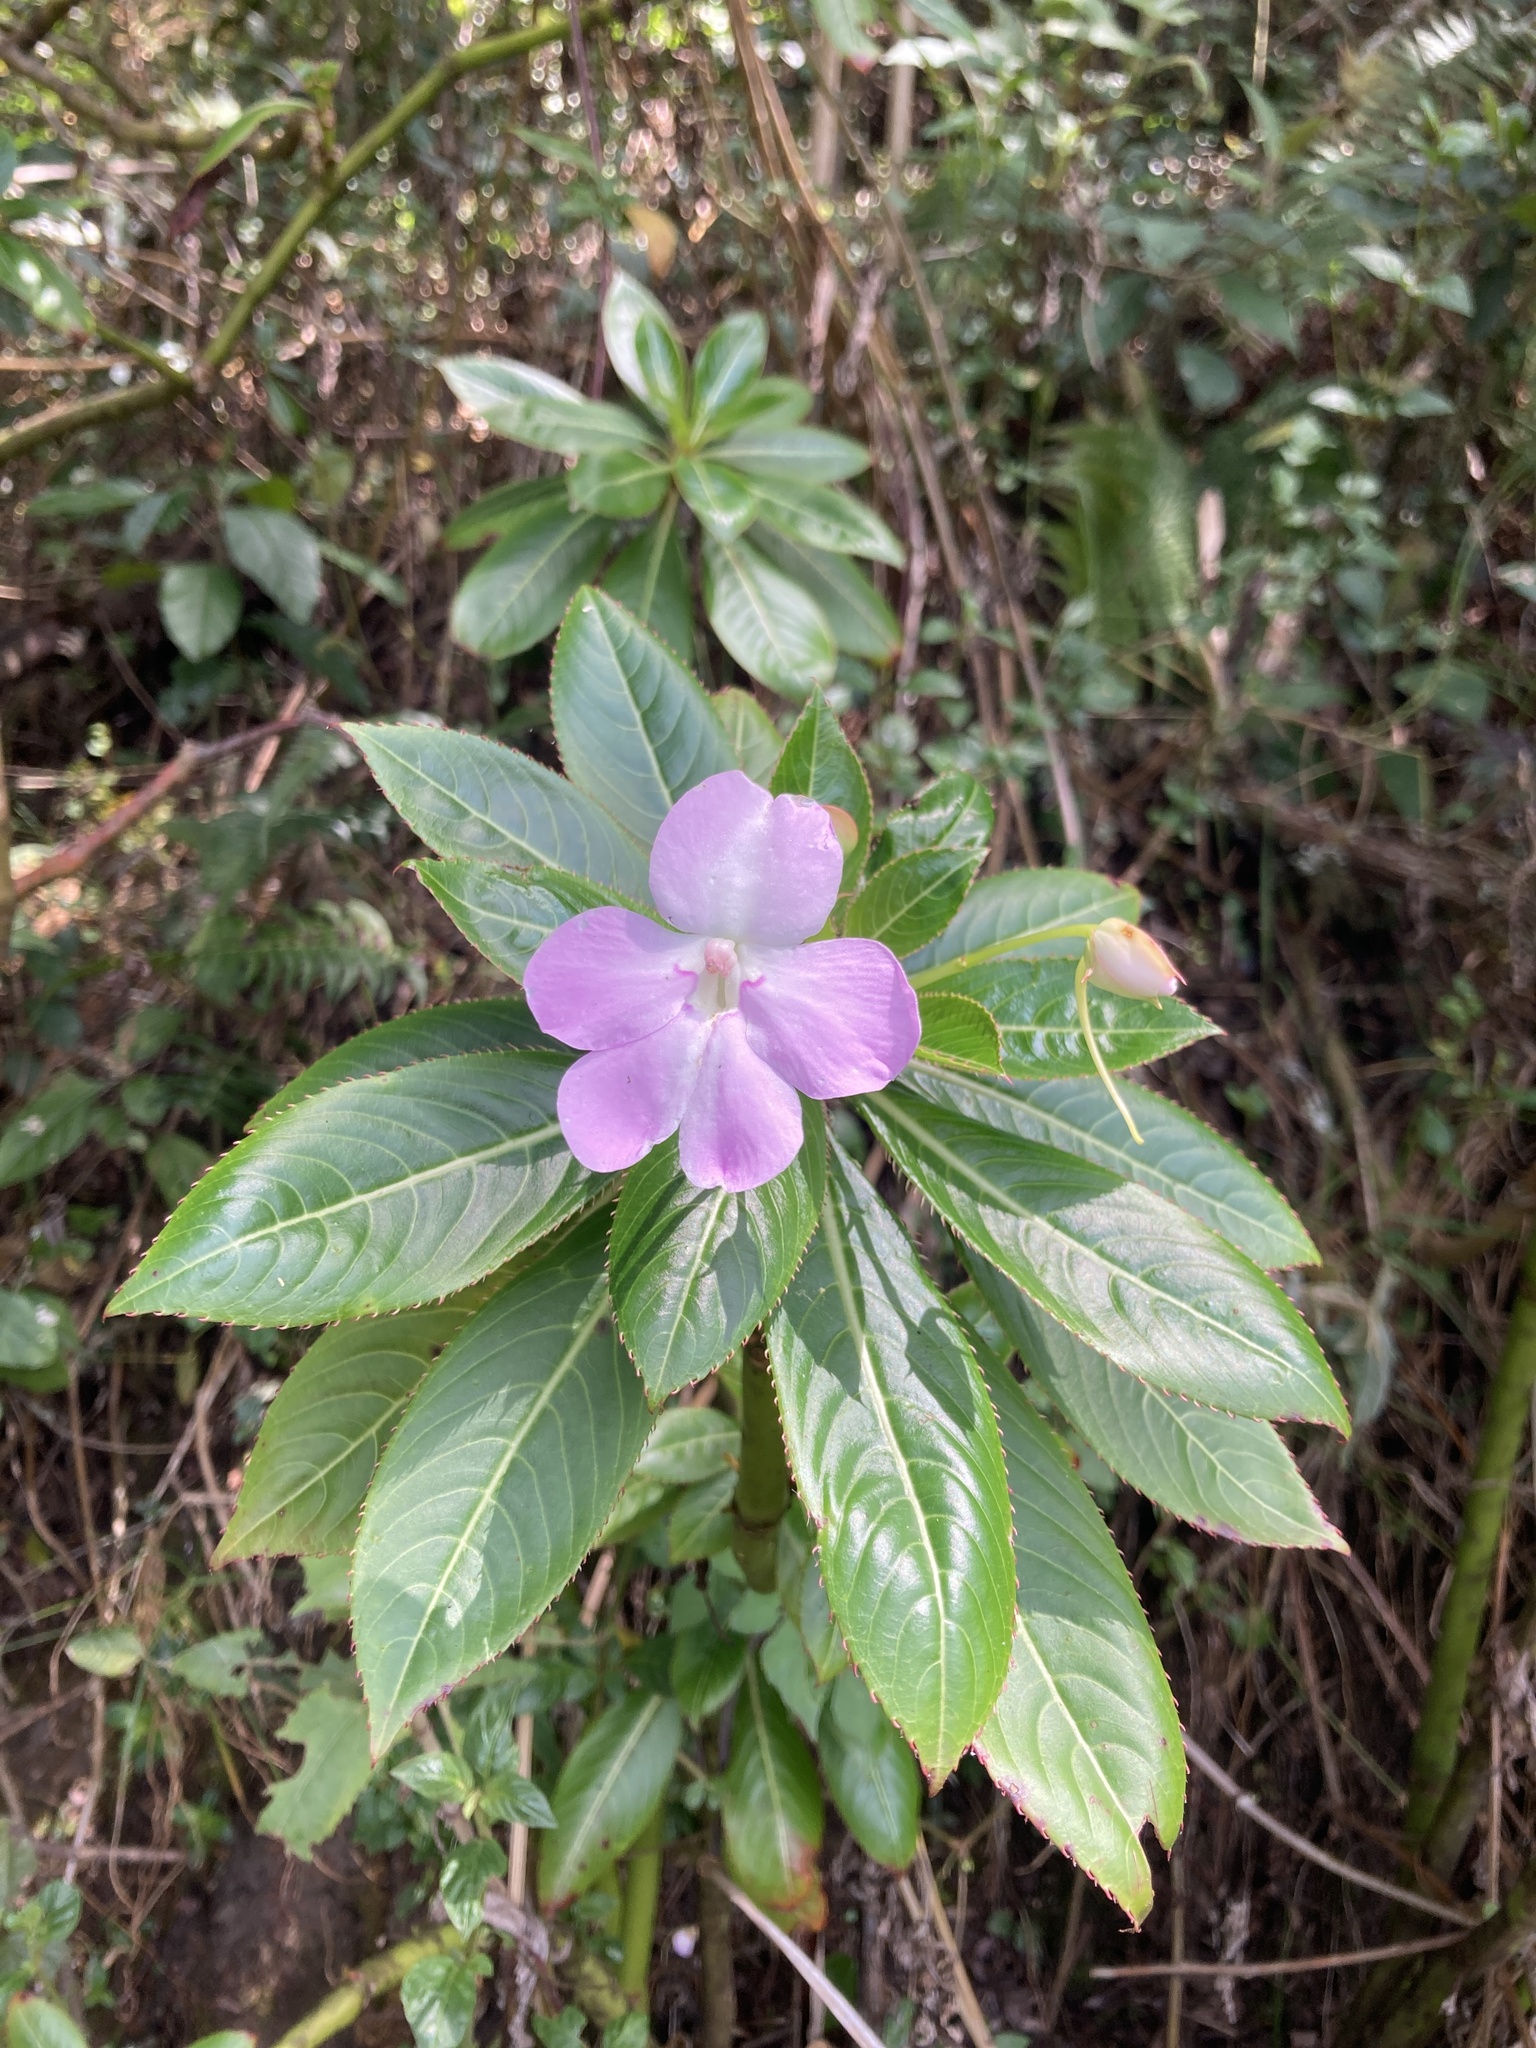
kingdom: Plantae
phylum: Tracheophyta
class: Magnoliopsida
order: Ericales
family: Balsaminaceae
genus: Impatiens
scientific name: Impatiens sodenii
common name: Oliver's touch-me-not
